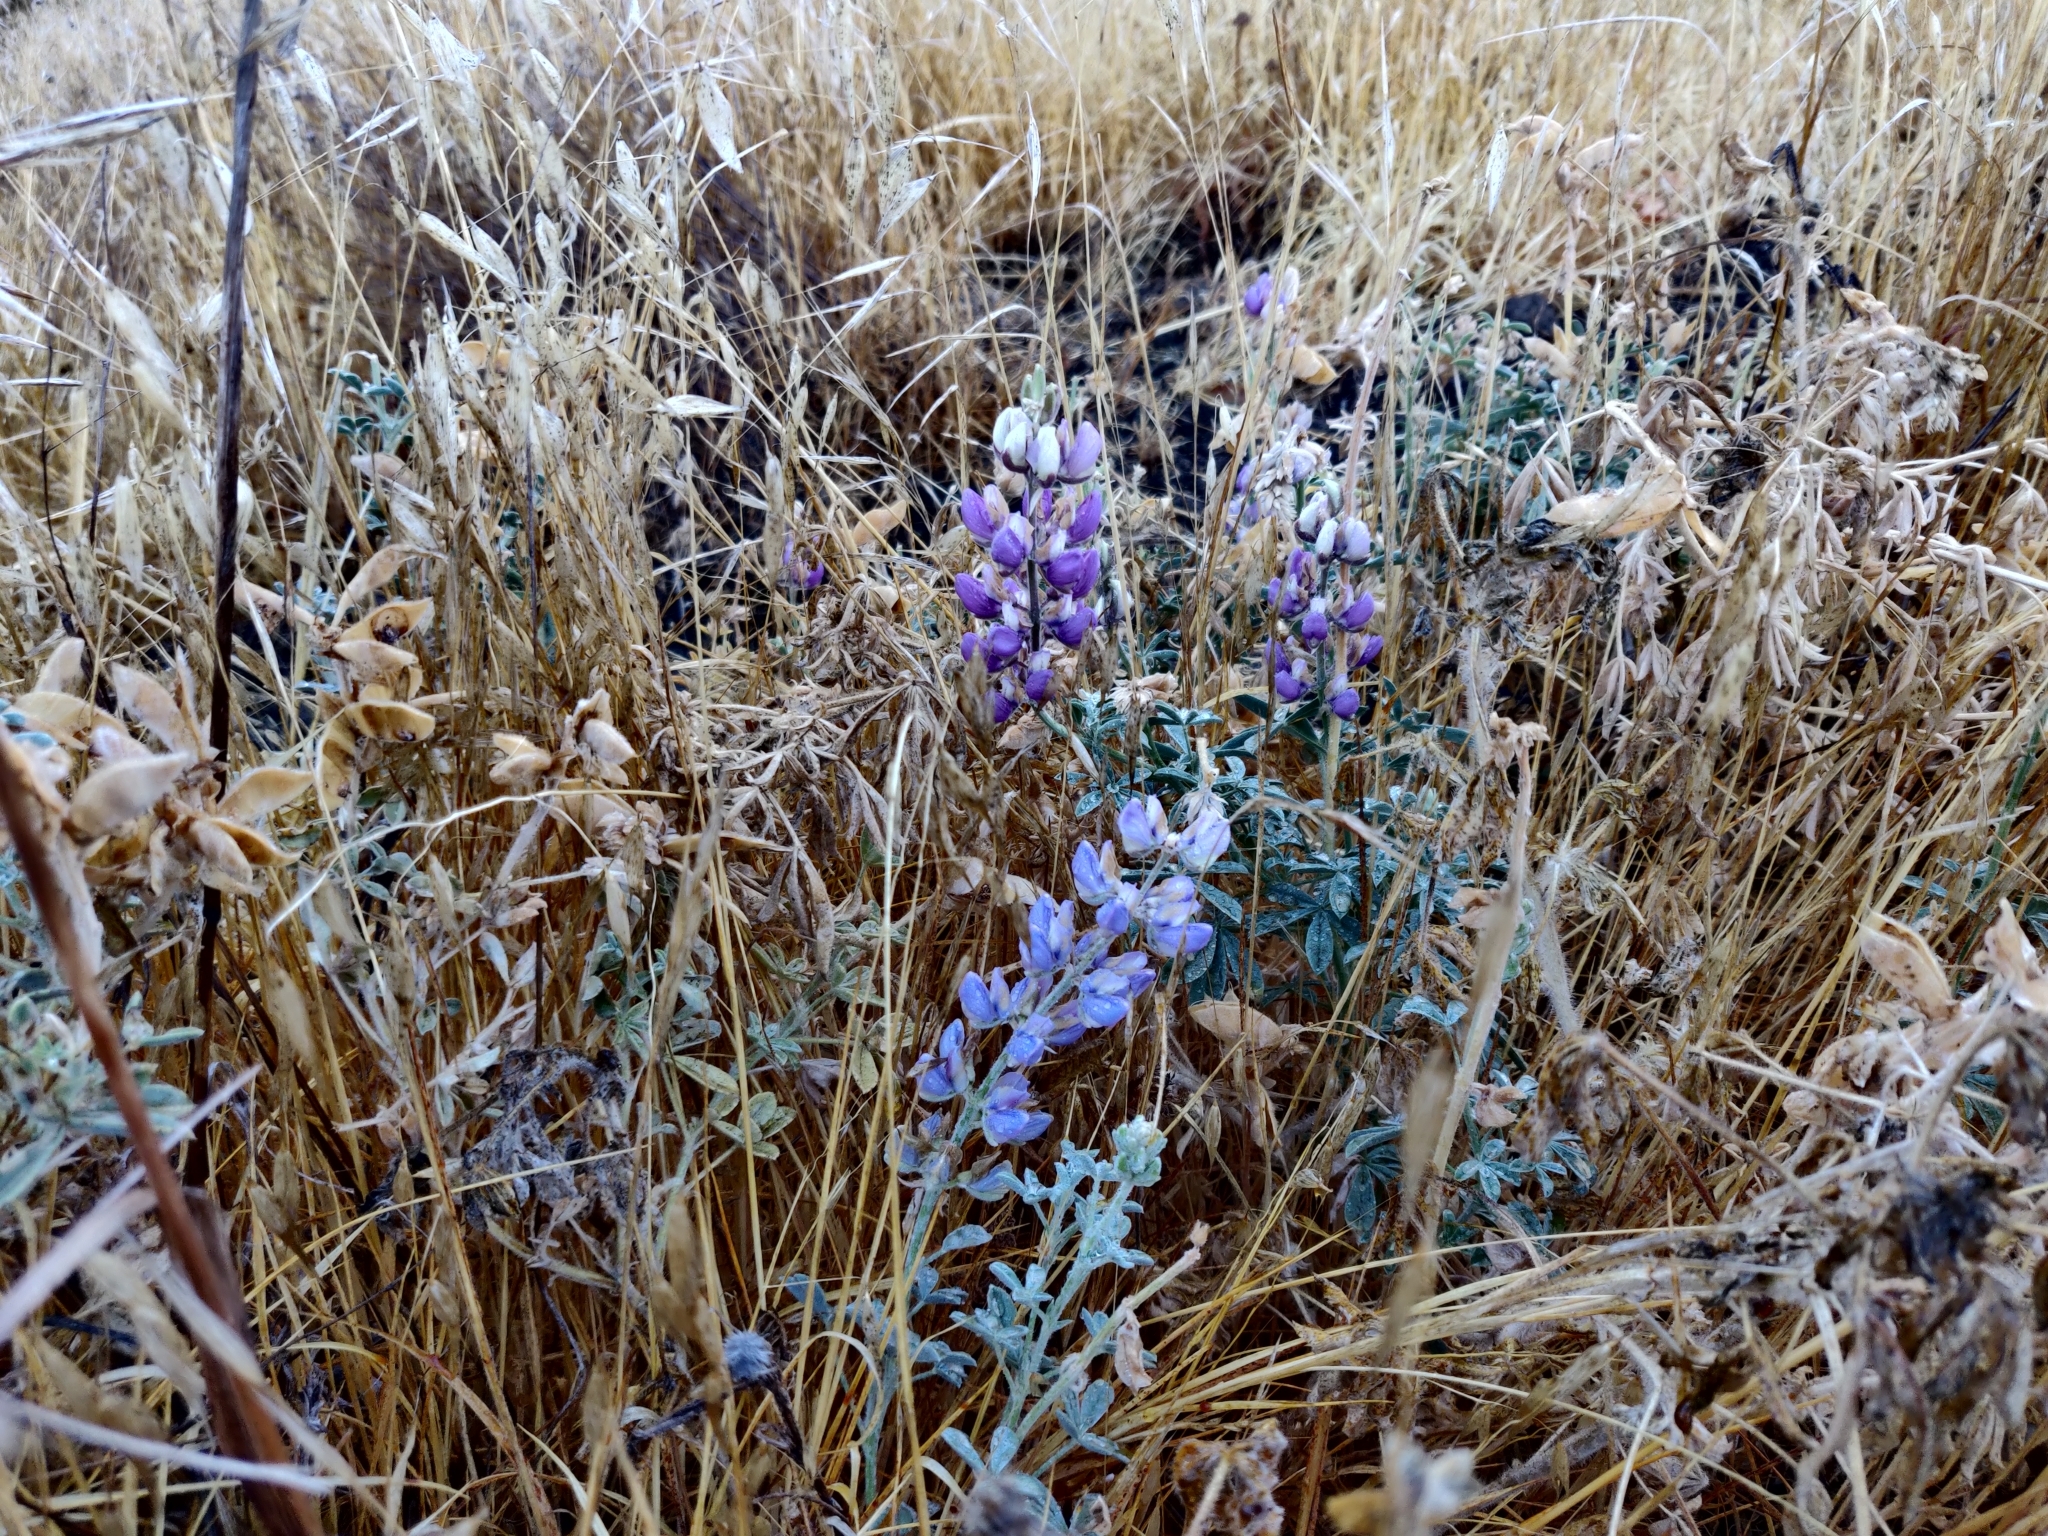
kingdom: Plantae
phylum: Tracheophyta
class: Magnoliopsida
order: Fabales
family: Fabaceae
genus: Lupinus
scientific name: Lupinus formosus
